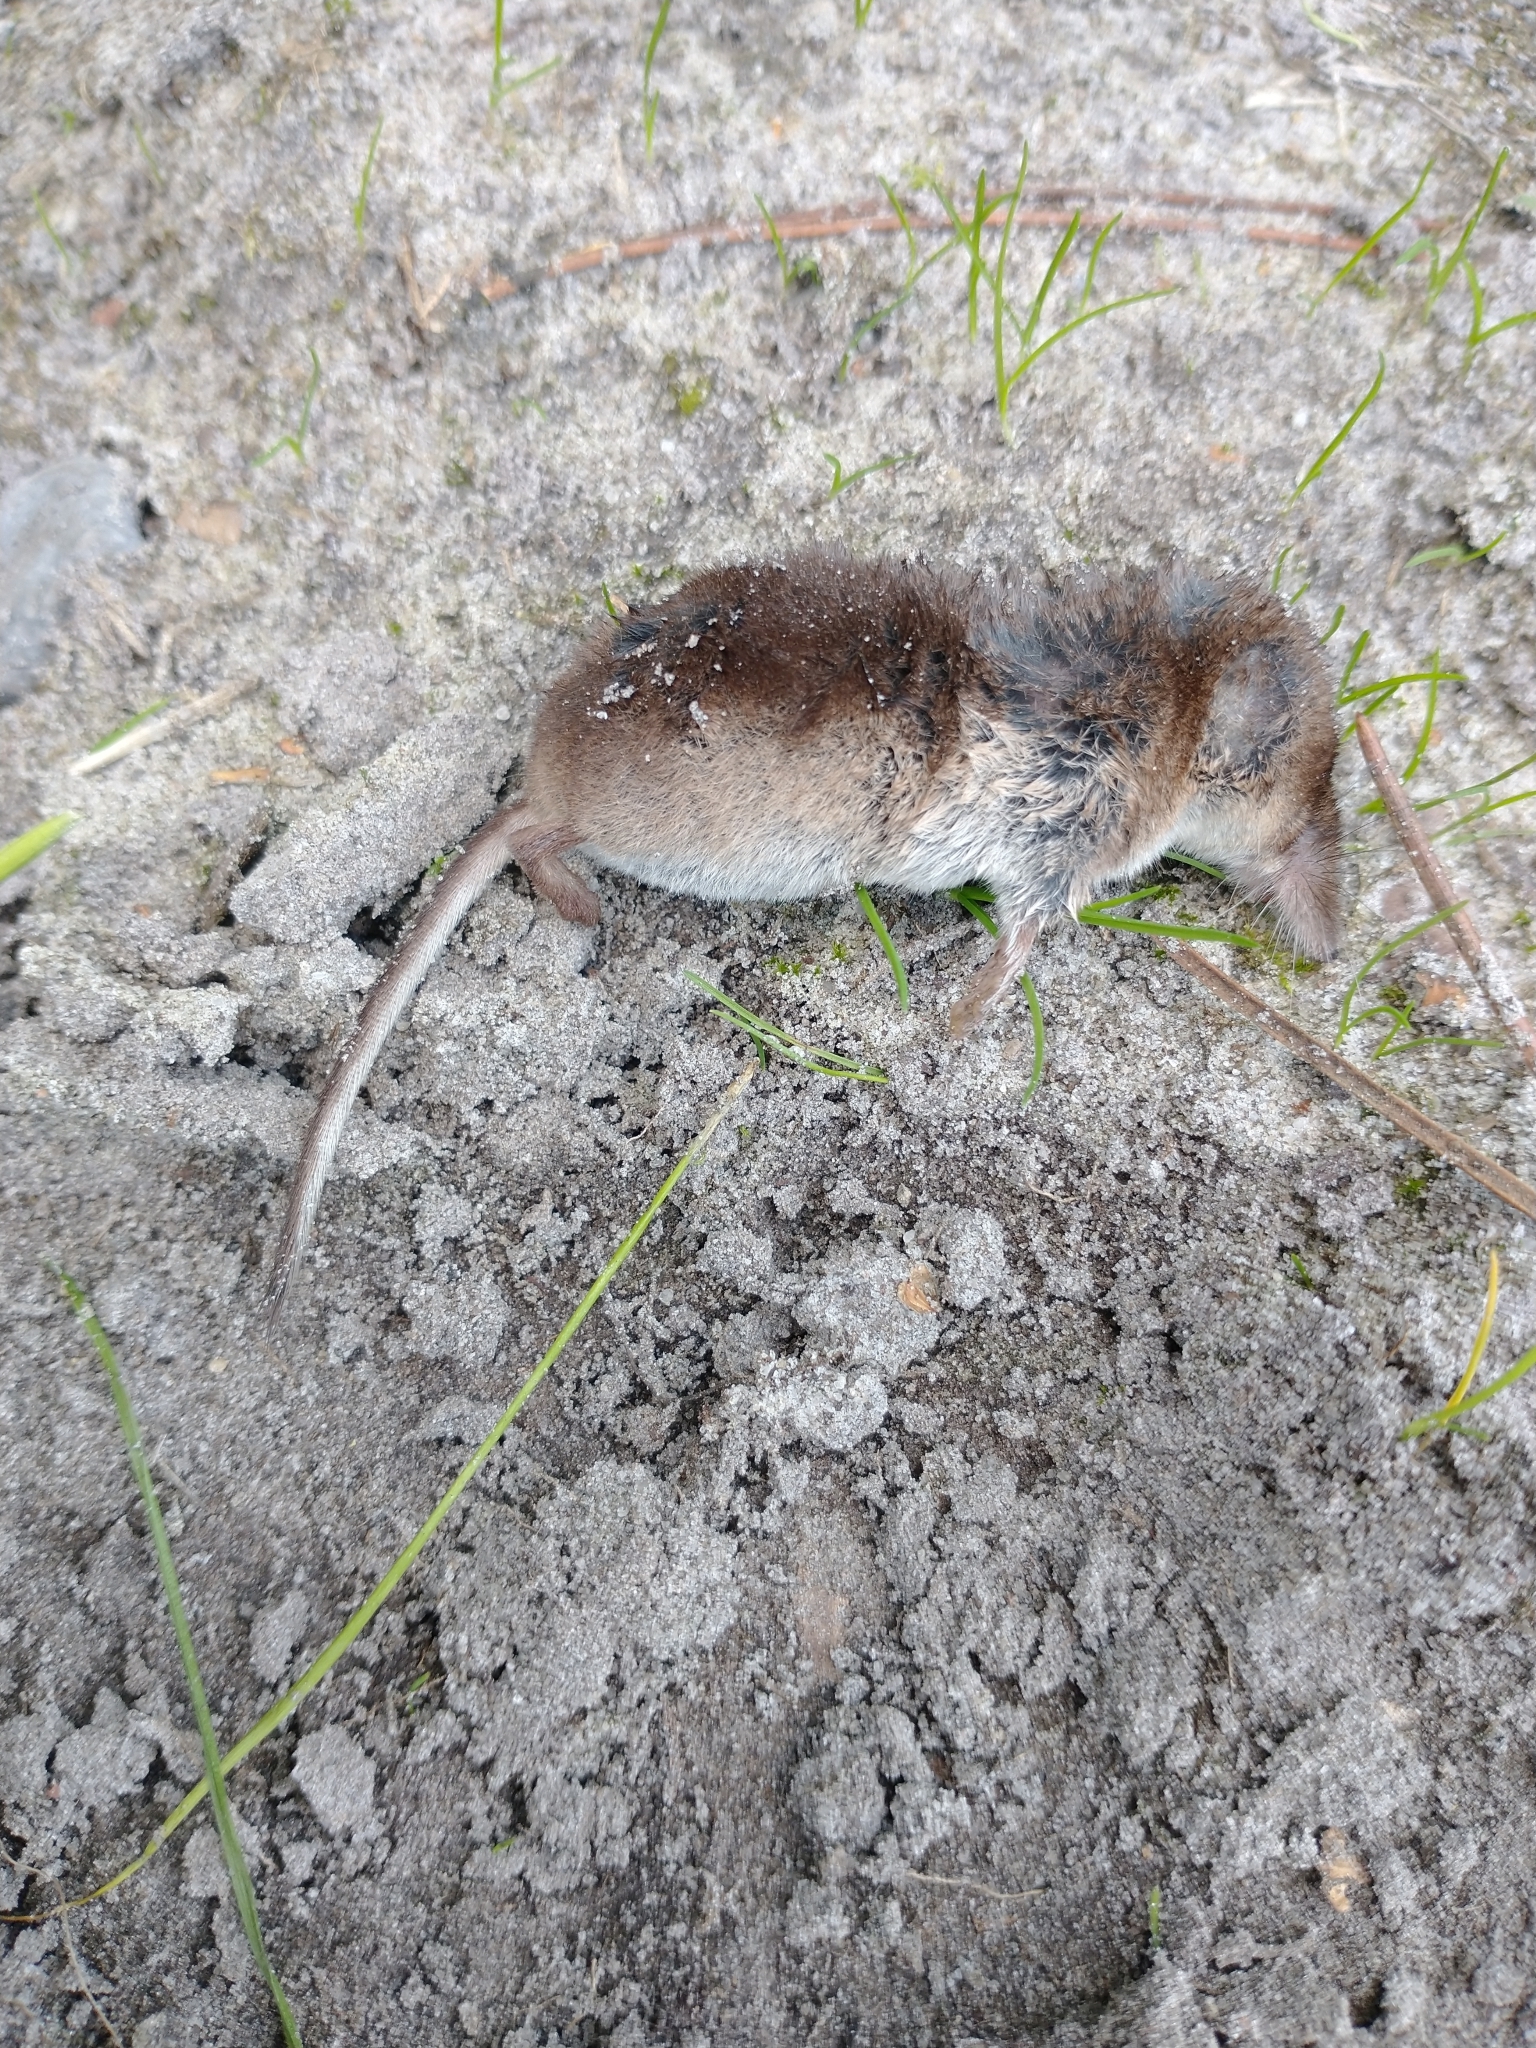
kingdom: Animalia
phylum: Chordata
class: Mammalia
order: Soricomorpha
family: Soricidae
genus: Sorex
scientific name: Sorex araneus
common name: Common shrew
